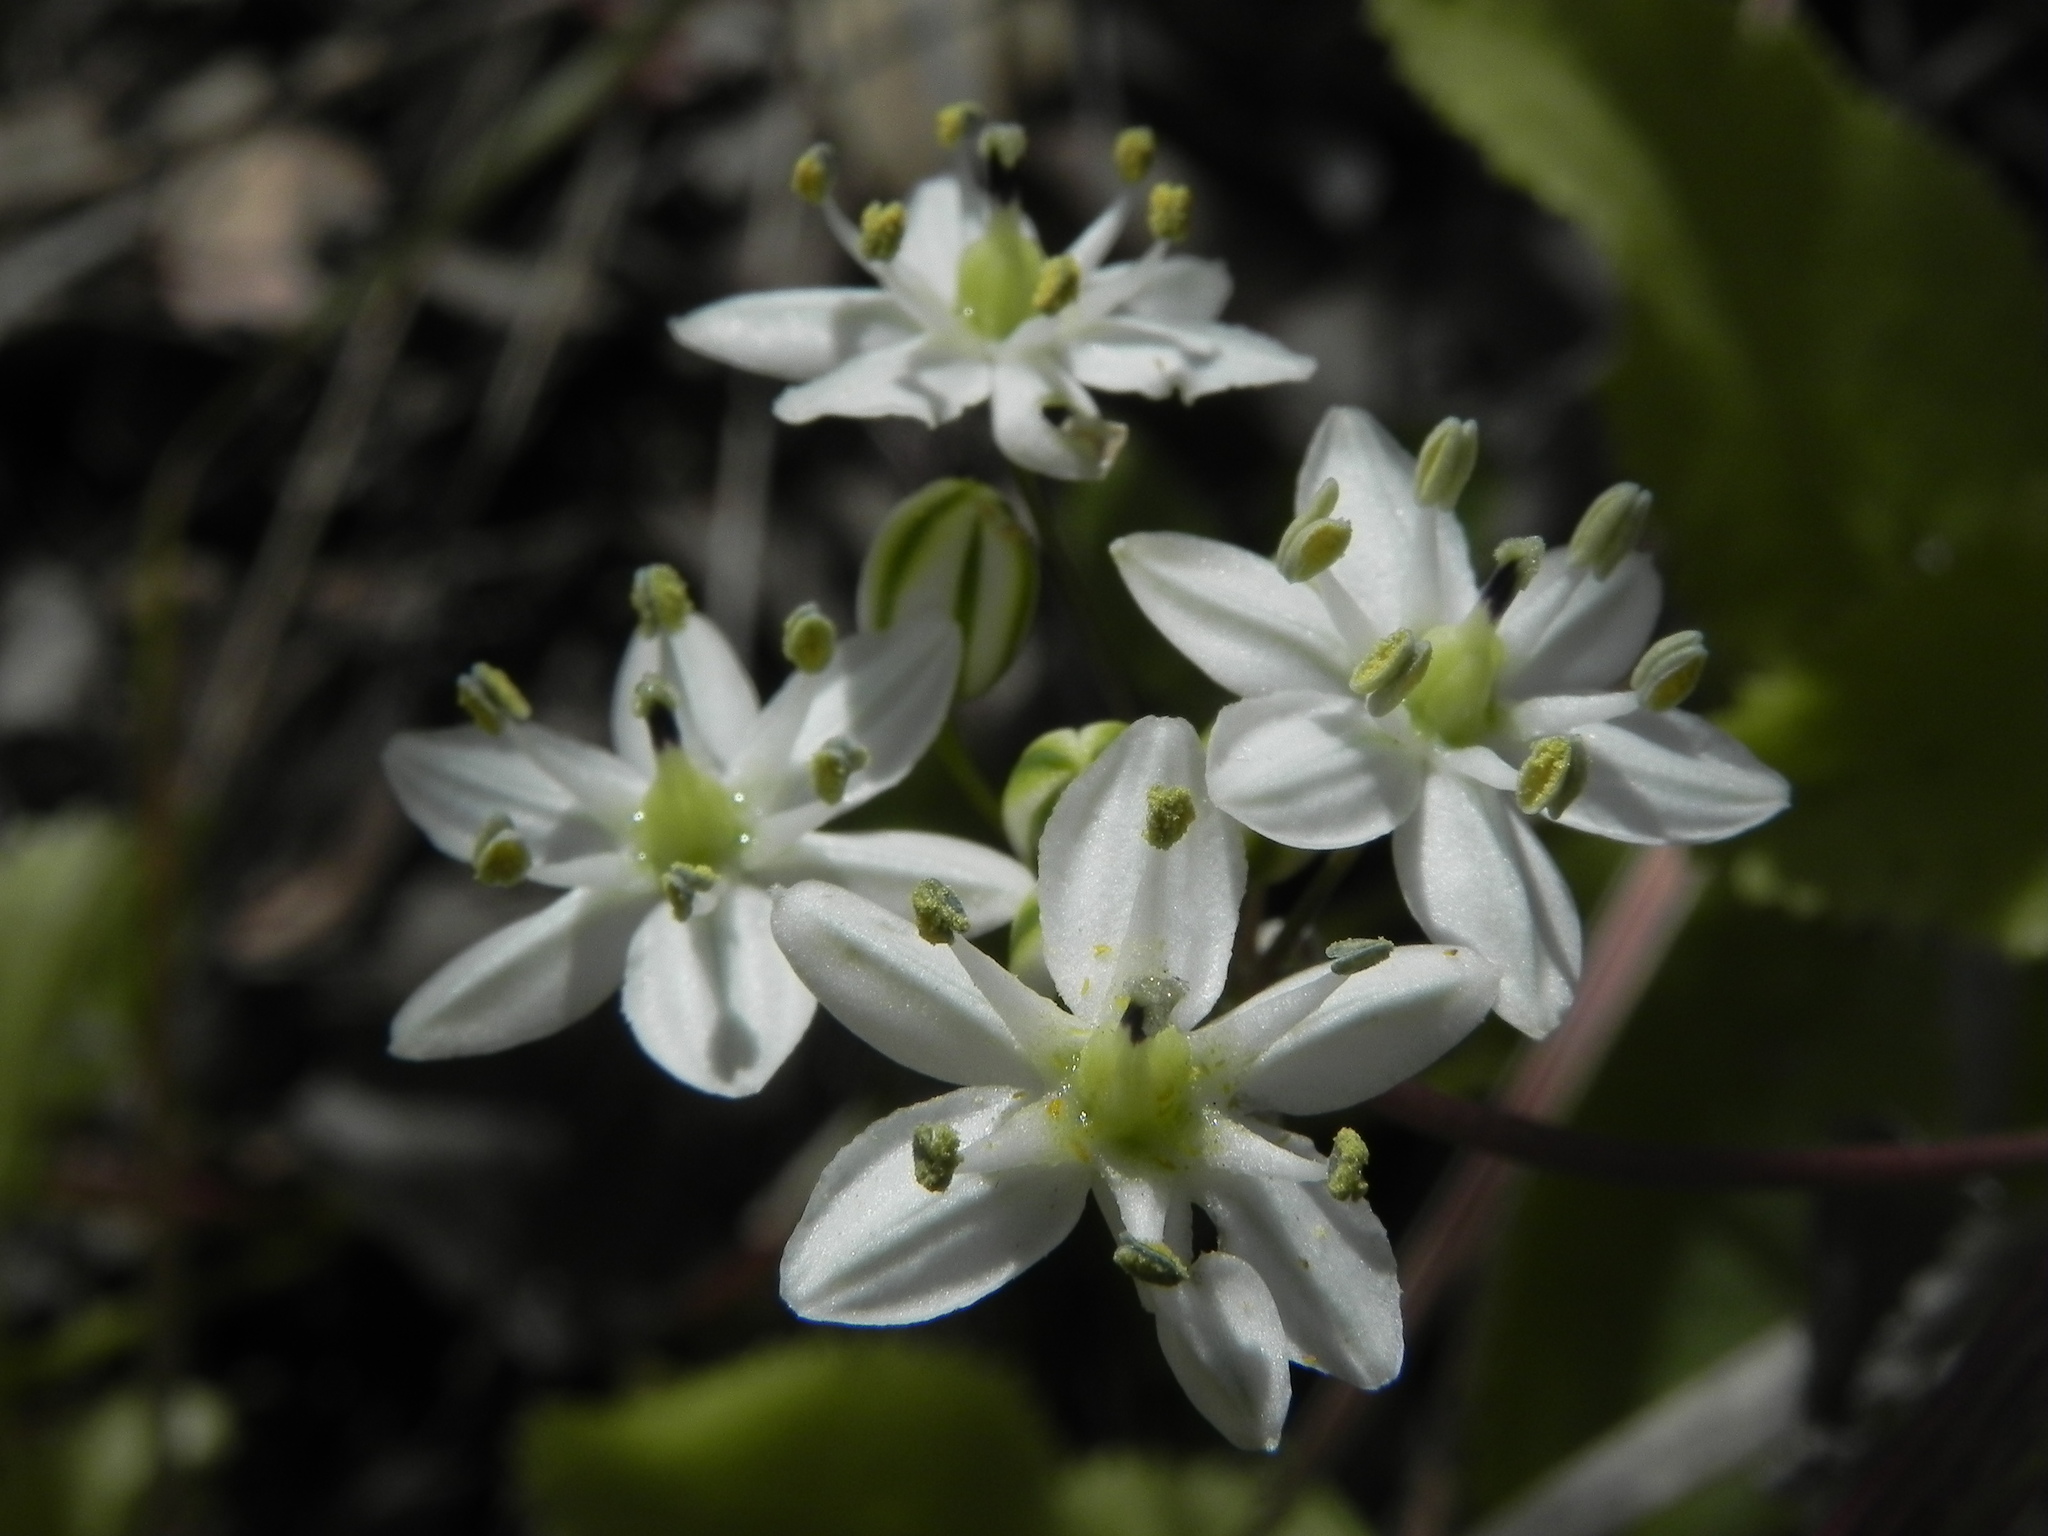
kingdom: Plantae
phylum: Tracheophyta
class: Liliopsida
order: Asparagales
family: Asparagaceae
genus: Muilla
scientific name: Muilla maritima
